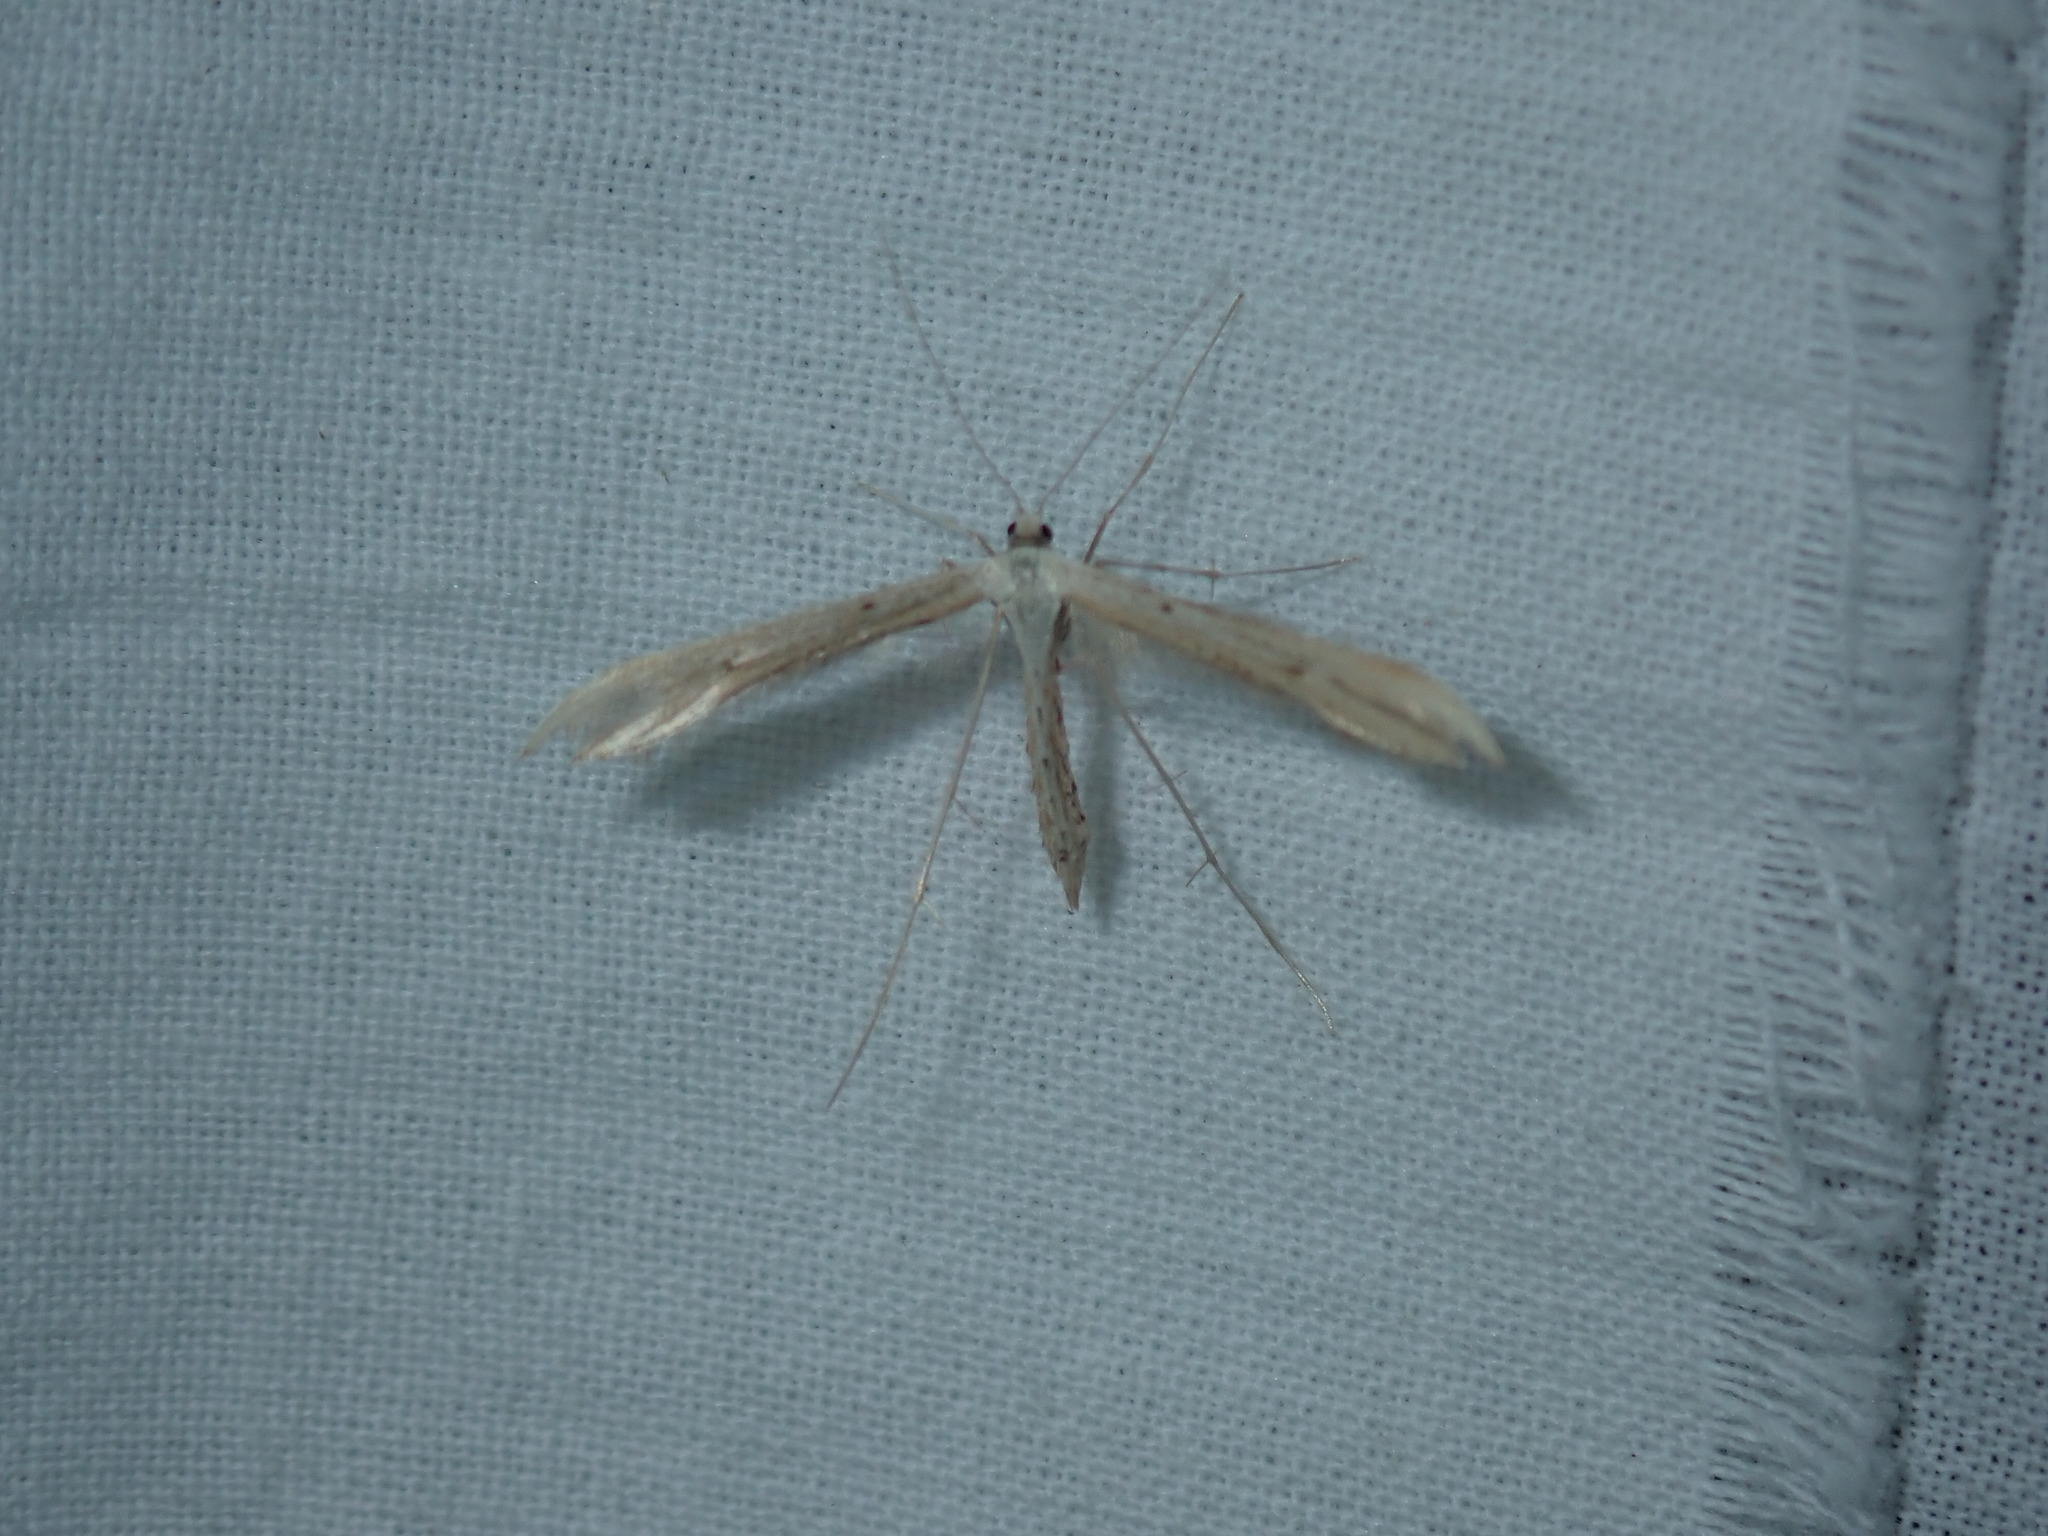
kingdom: Animalia
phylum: Arthropoda
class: Insecta
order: Lepidoptera
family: Pterophoridae
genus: Emmelina
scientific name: Emmelina monodactyla
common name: Common plume
